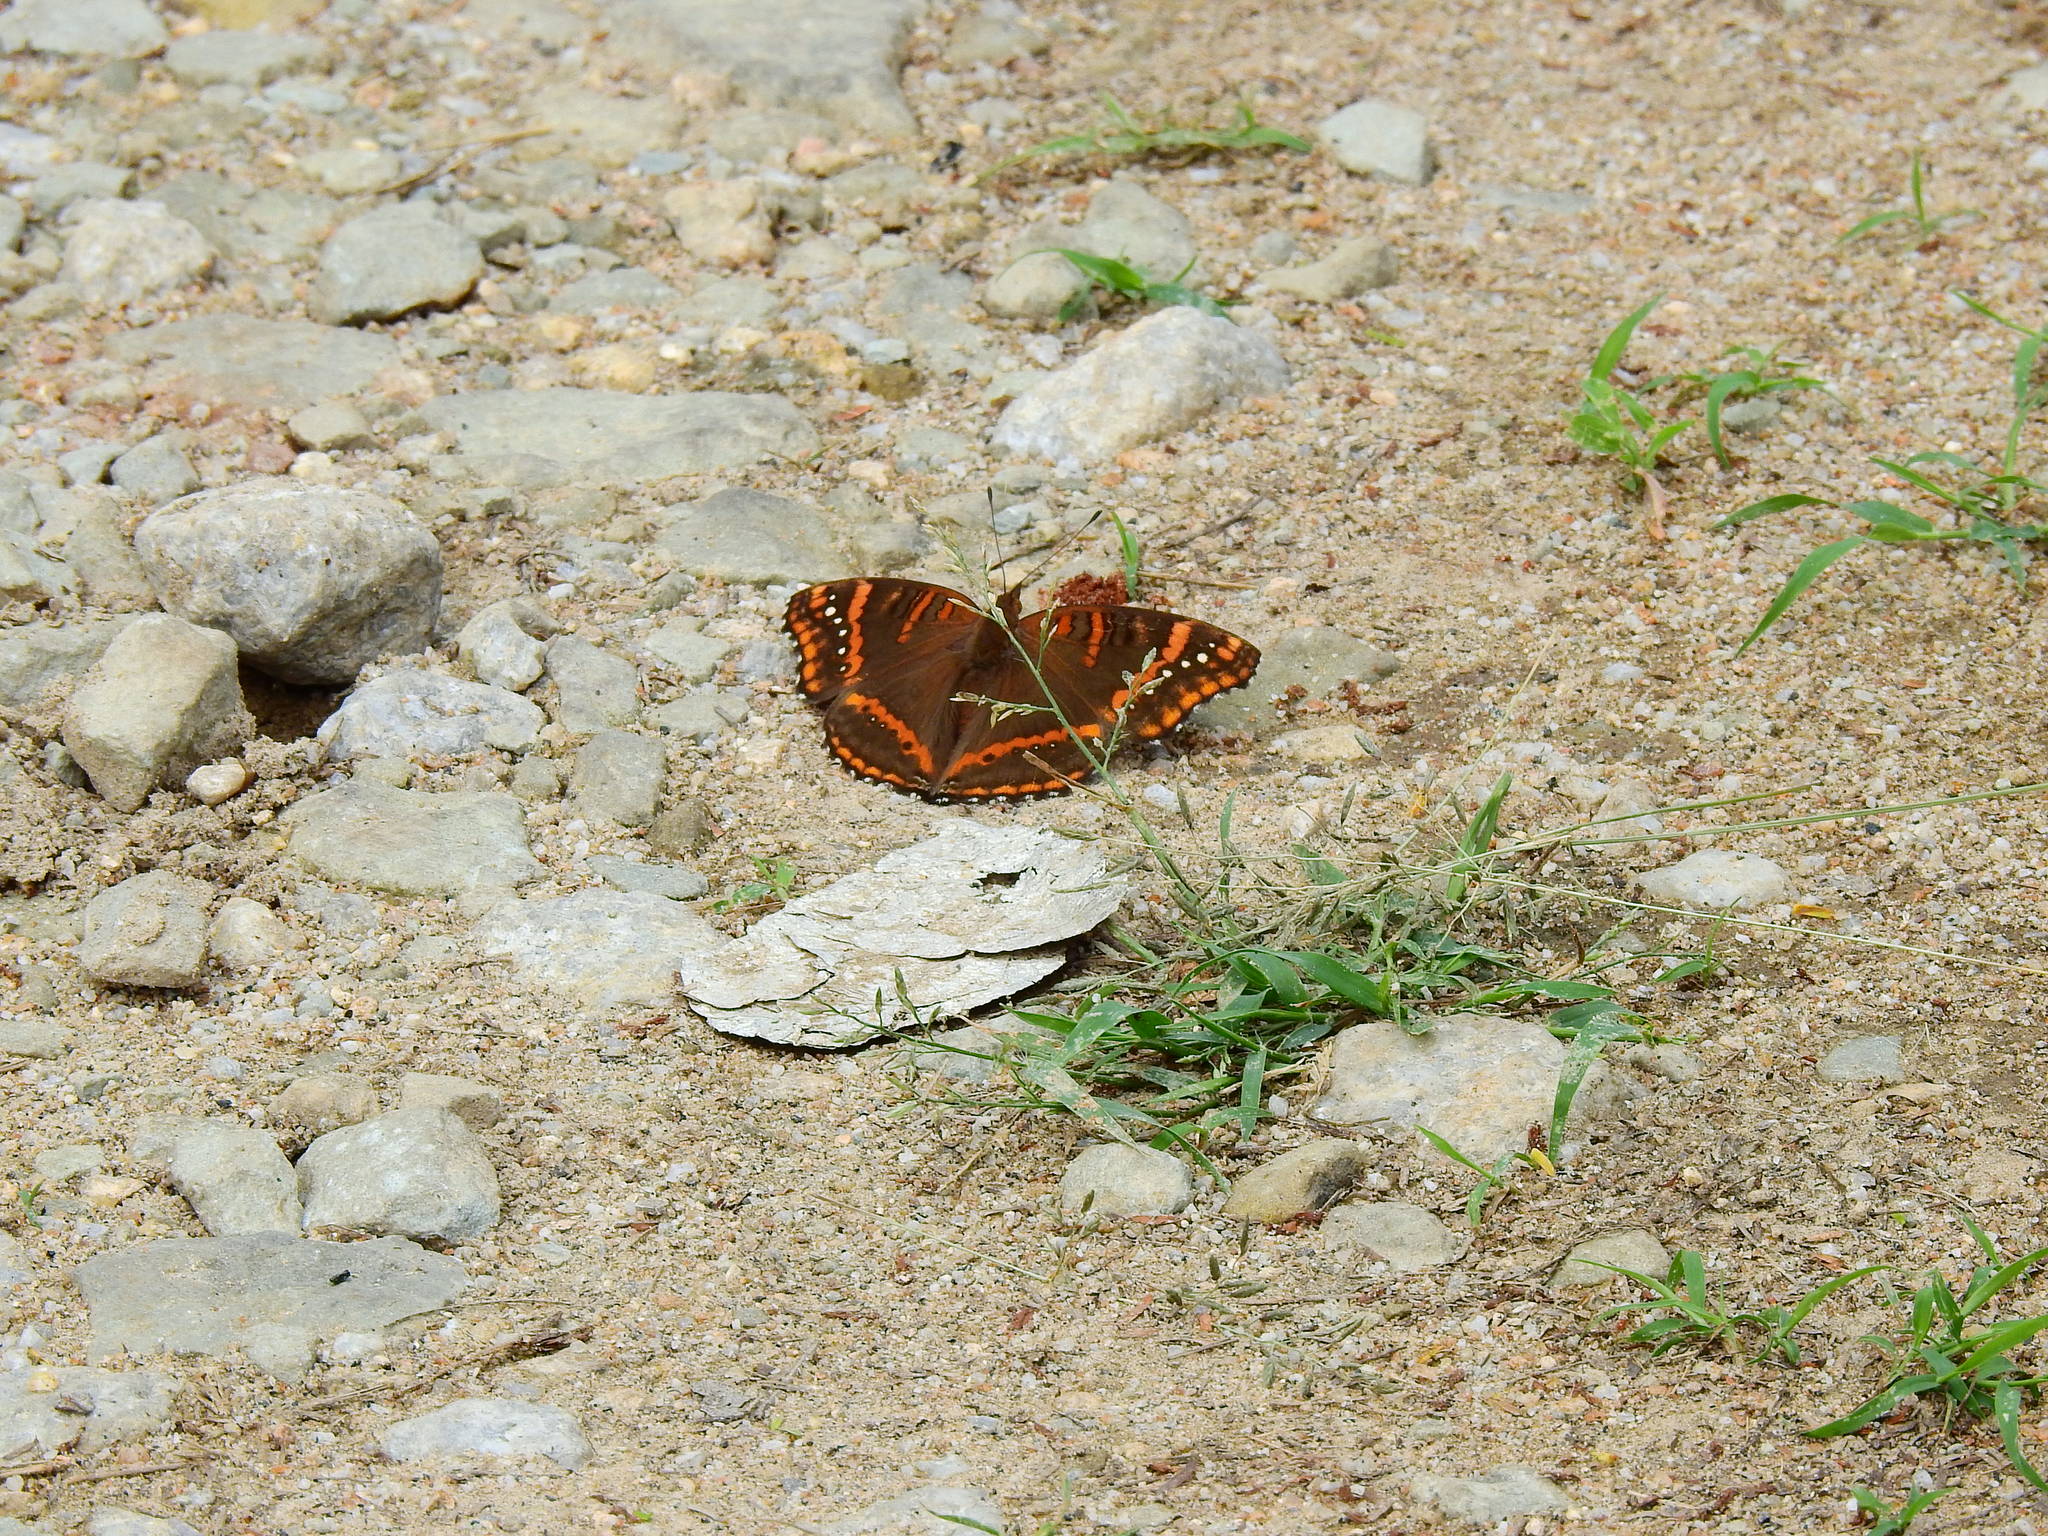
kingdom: Animalia
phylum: Arthropoda
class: Insecta
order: Lepidoptera
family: Nymphalidae
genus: Junonia
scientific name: Junonia limnoria
